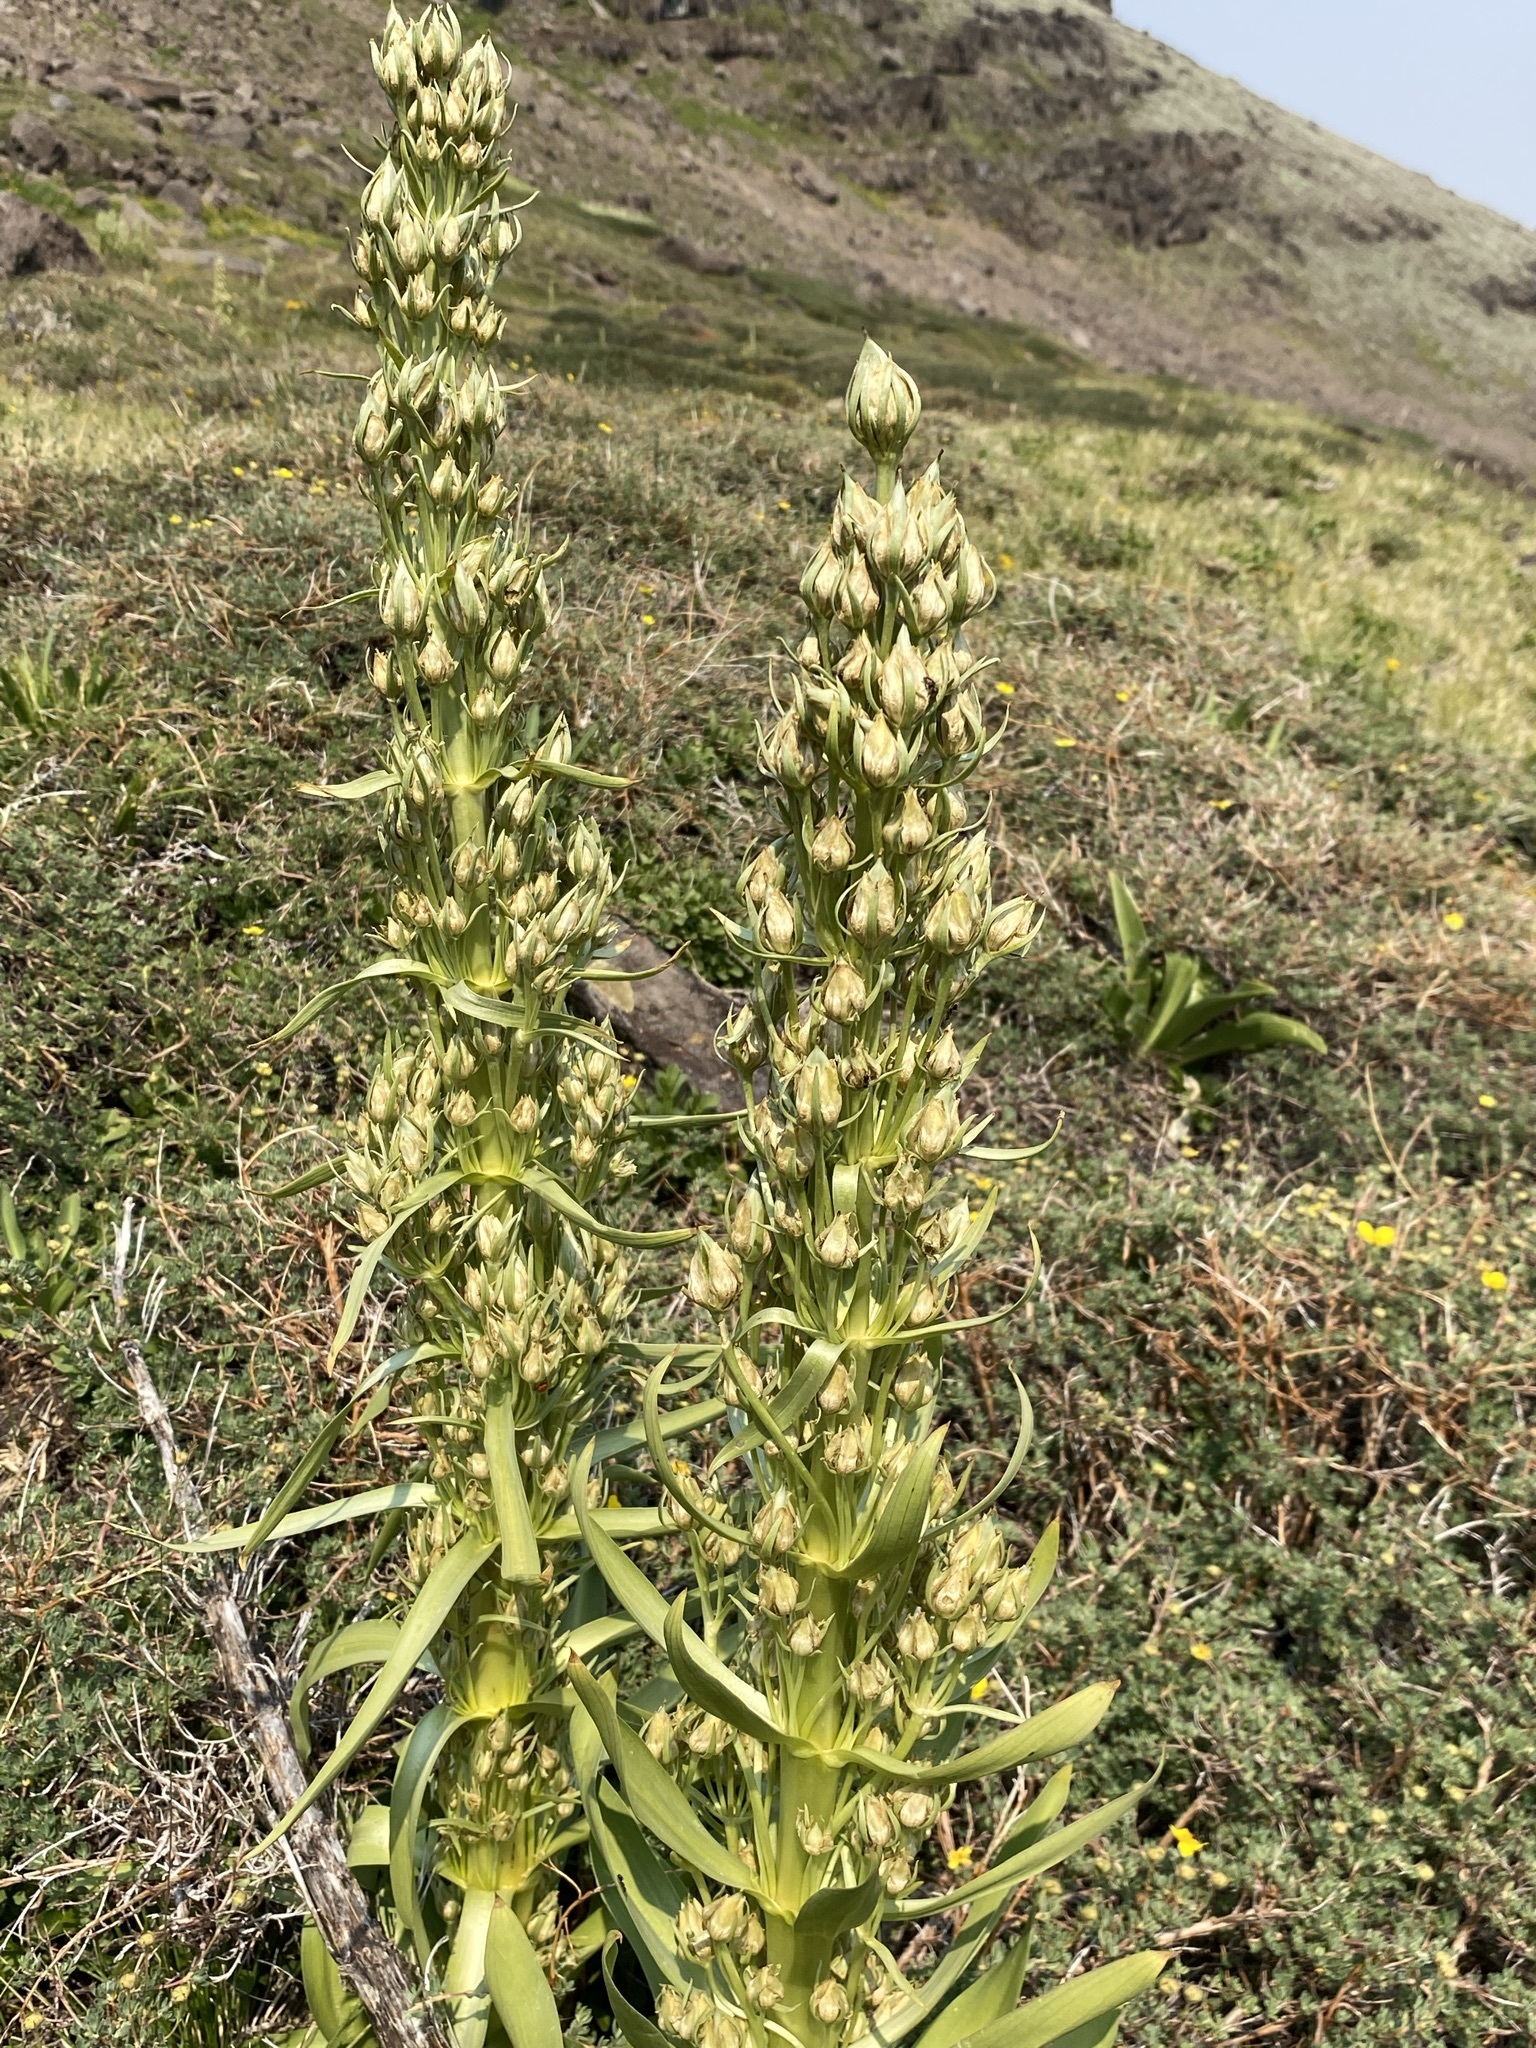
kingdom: Plantae
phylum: Tracheophyta
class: Magnoliopsida
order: Gentianales
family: Gentianaceae
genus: Frasera
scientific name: Frasera speciosa
